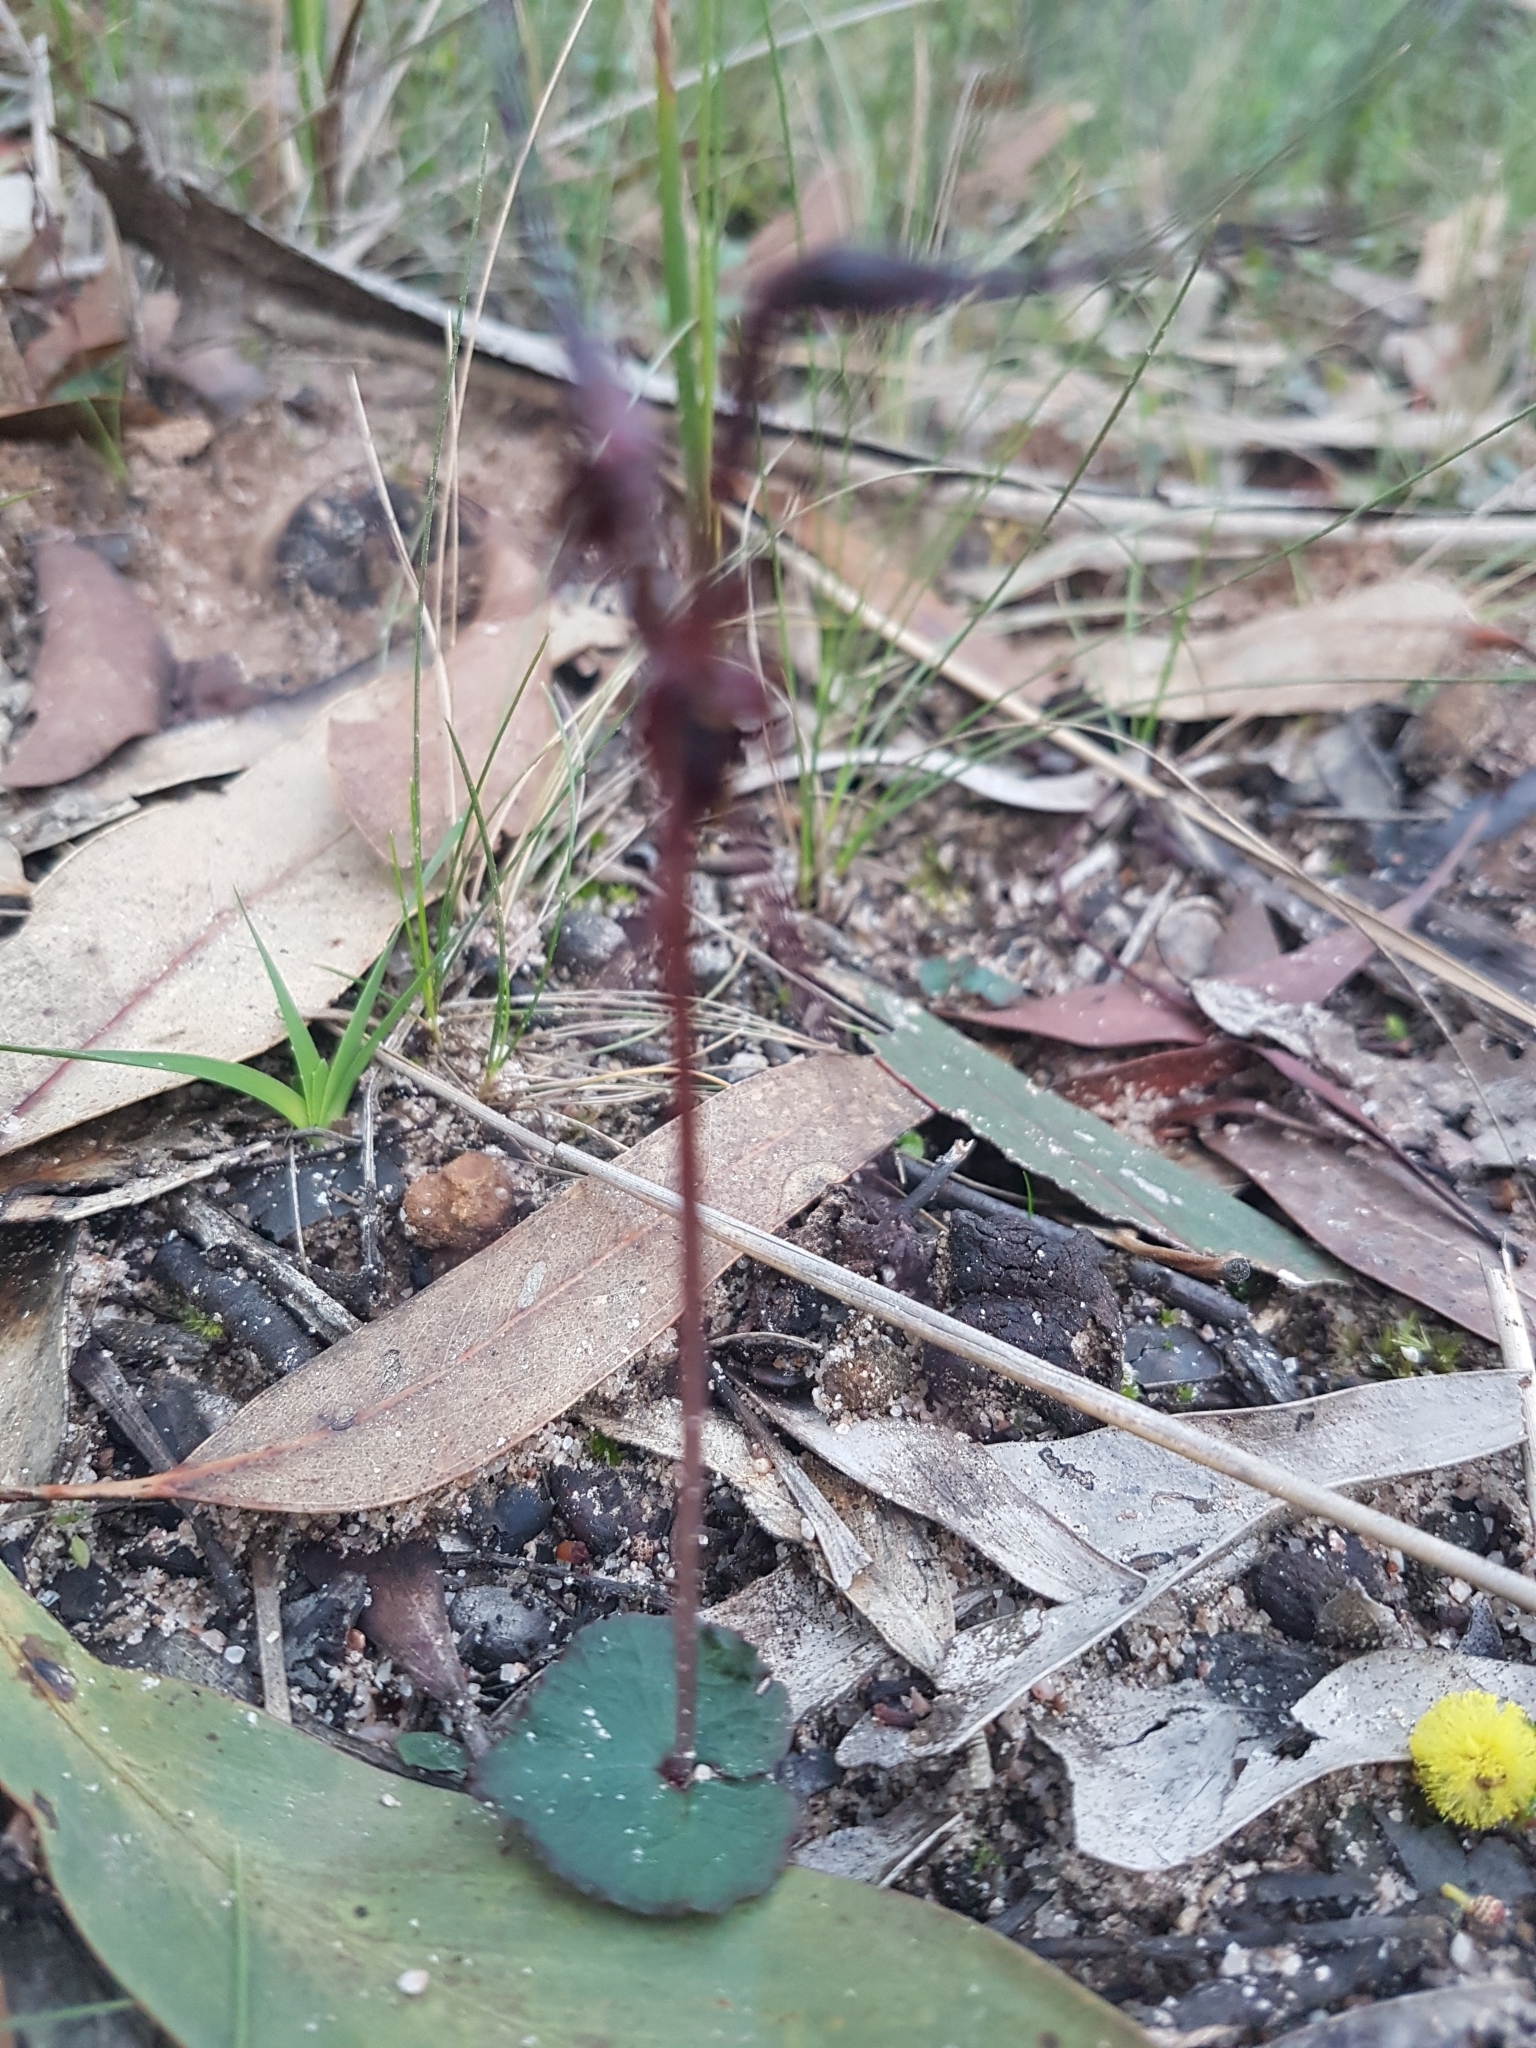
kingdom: Plantae
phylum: Tracheophyta
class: Liliopsida
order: Asparagales
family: Orchidaceae
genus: Acianthus
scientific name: Acianthus caudatus
